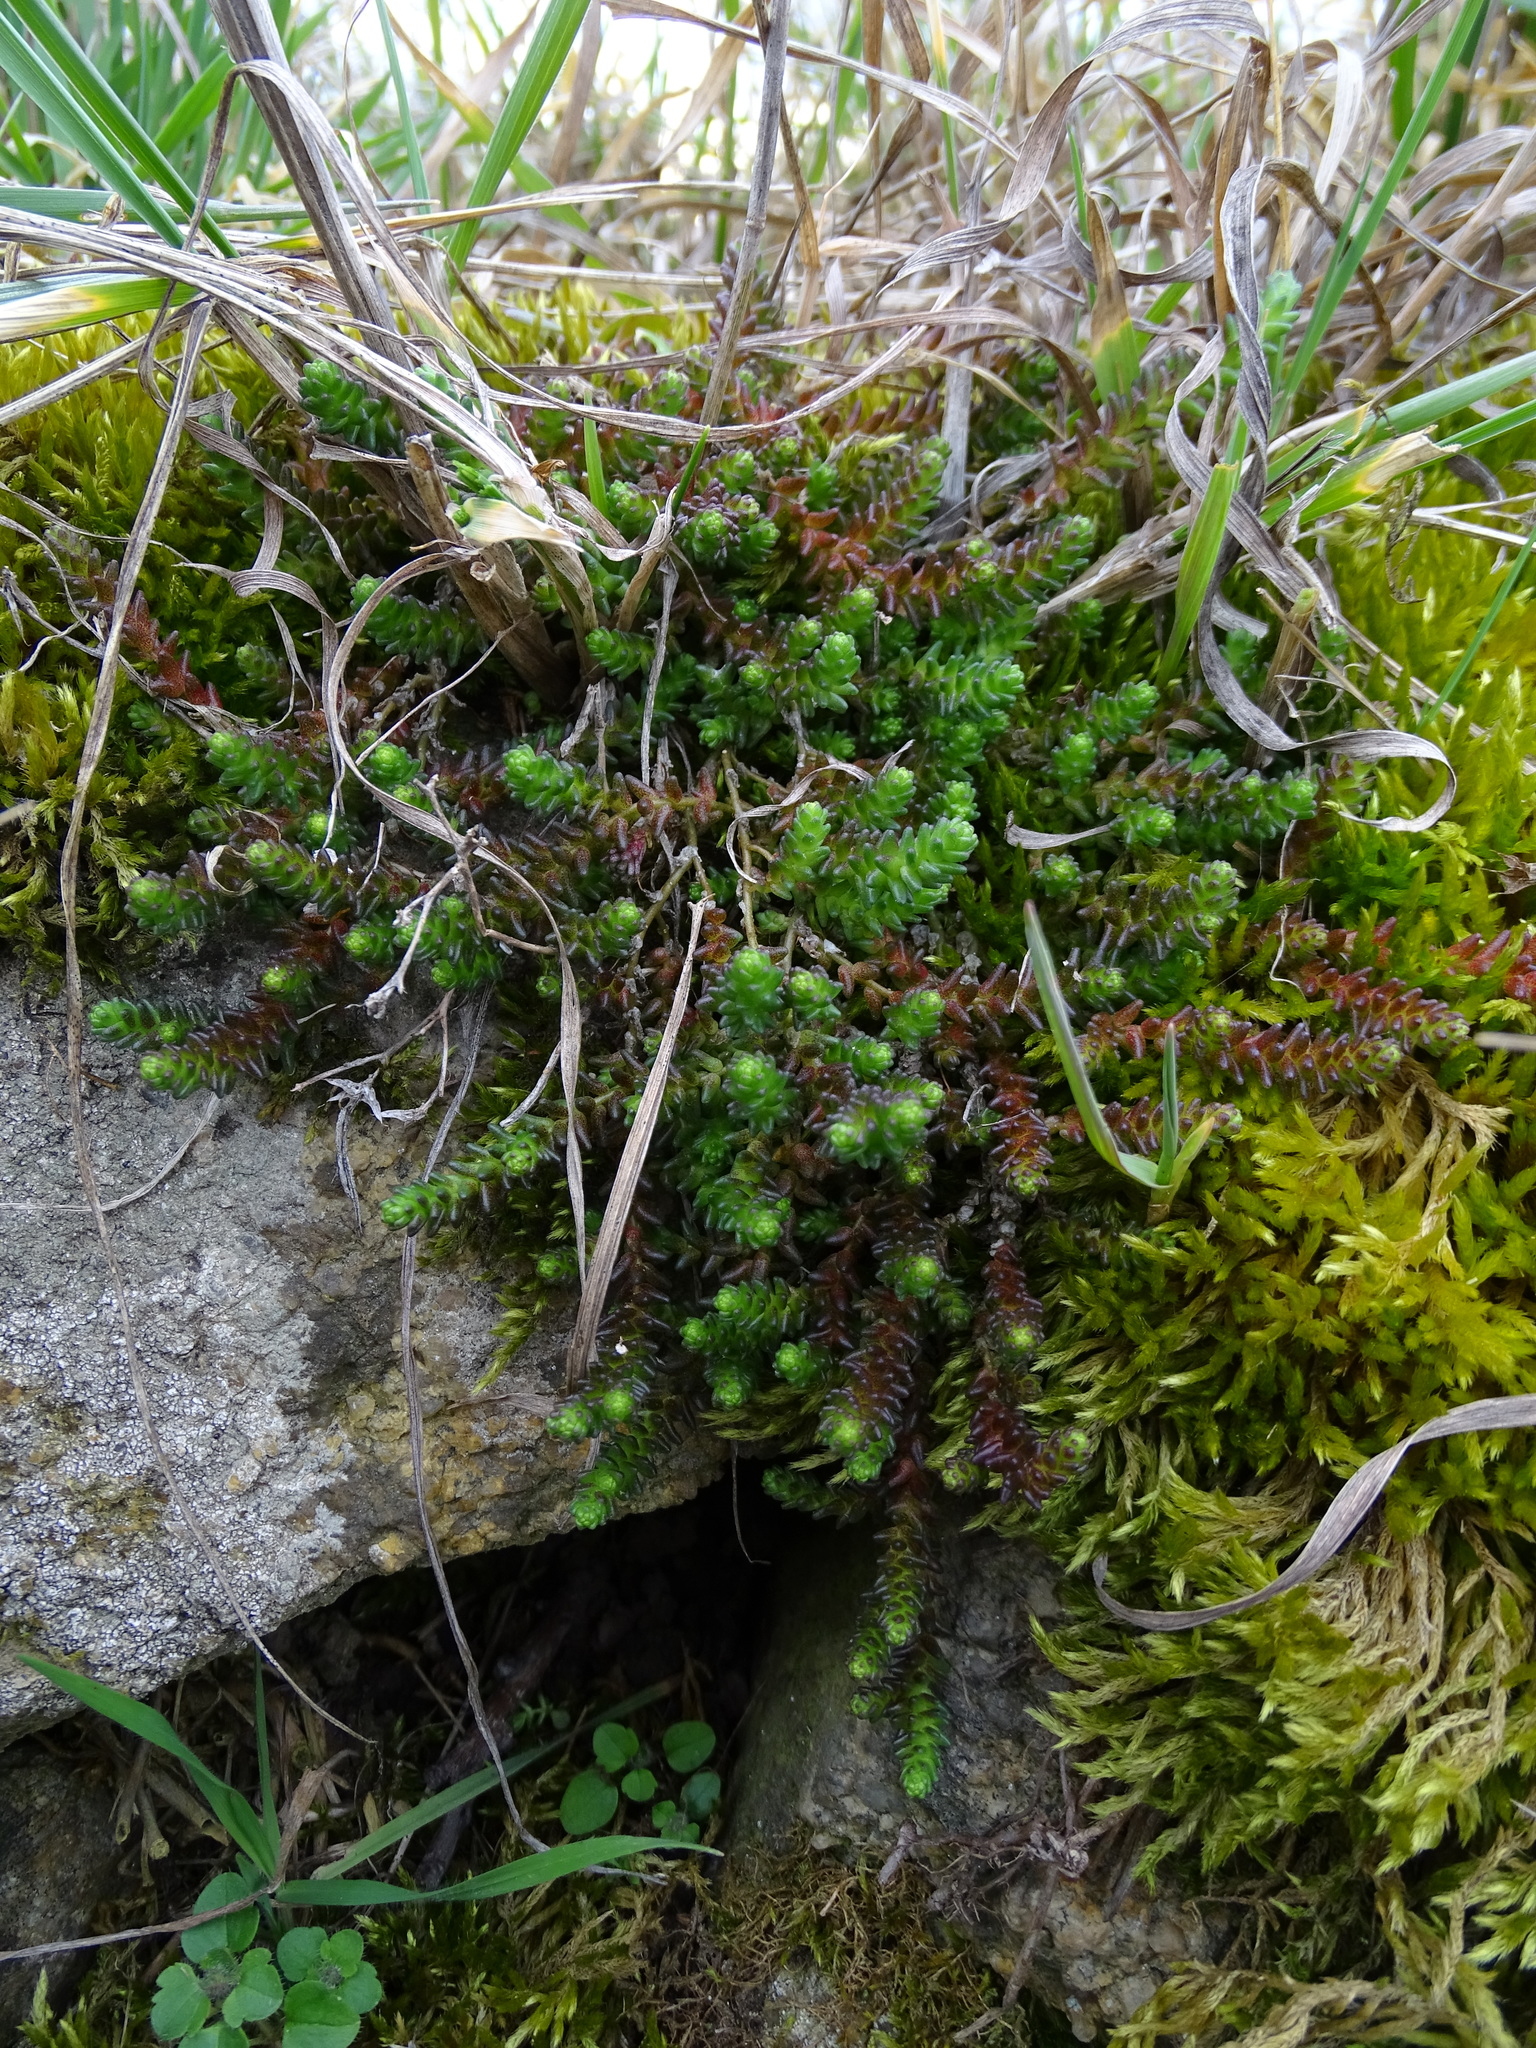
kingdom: Plantae
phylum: Tracheophyta
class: Magnoliopsida
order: Saxifragales
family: Crassulaceae
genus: Sedum
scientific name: Sedum acre
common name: Biting stonecrop
